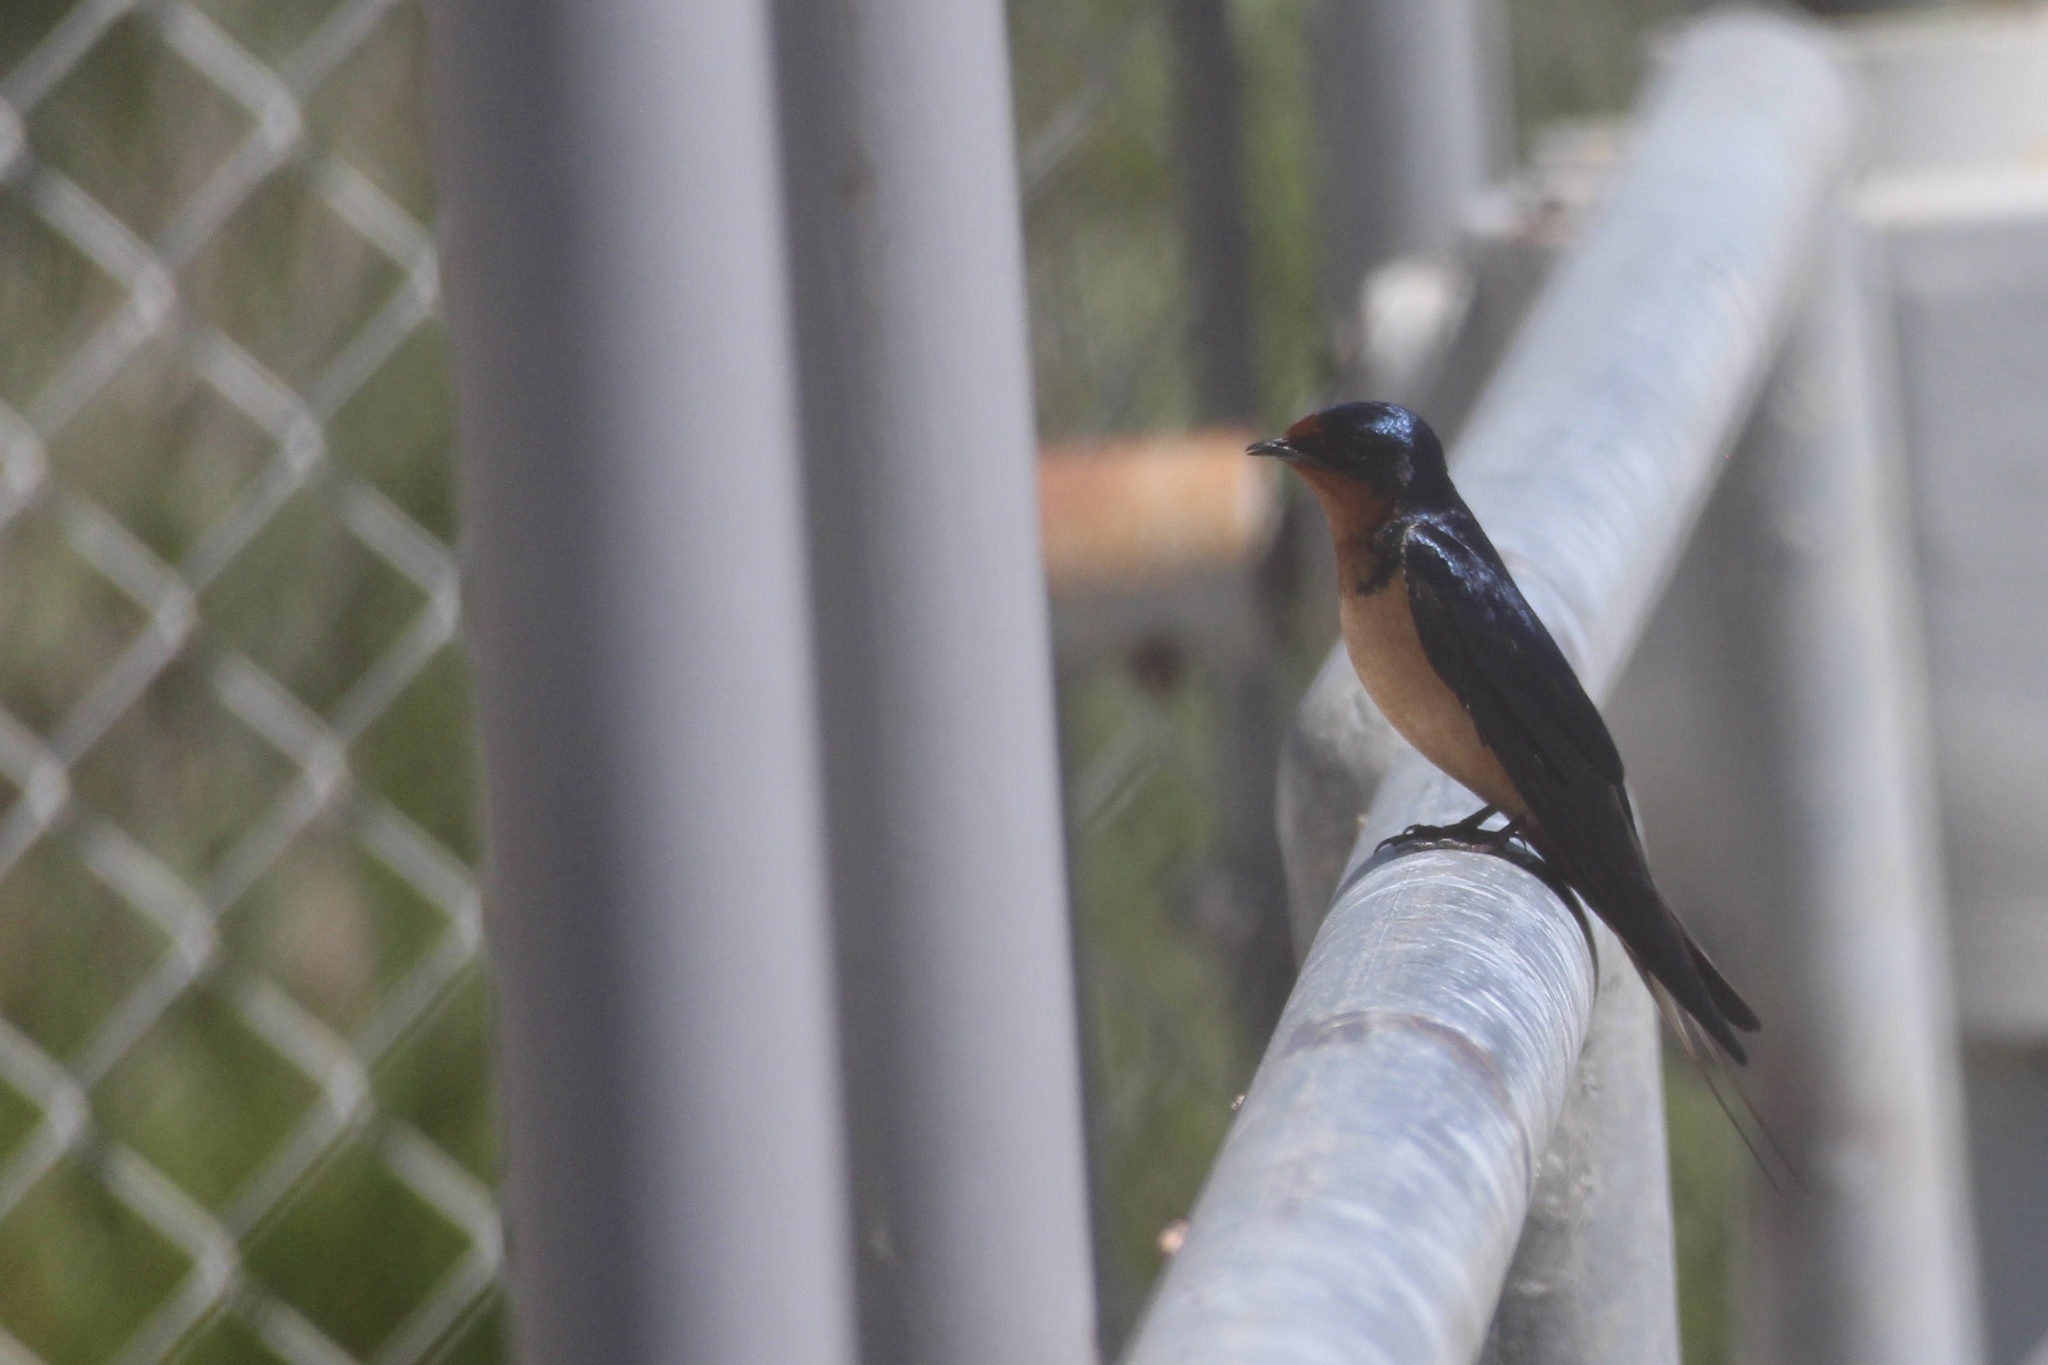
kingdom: Animalia
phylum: Chordata
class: Aves
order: Passeriformes
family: Hirundinidae
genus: Hirundo
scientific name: Hirundo rustica
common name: Barn swallow
